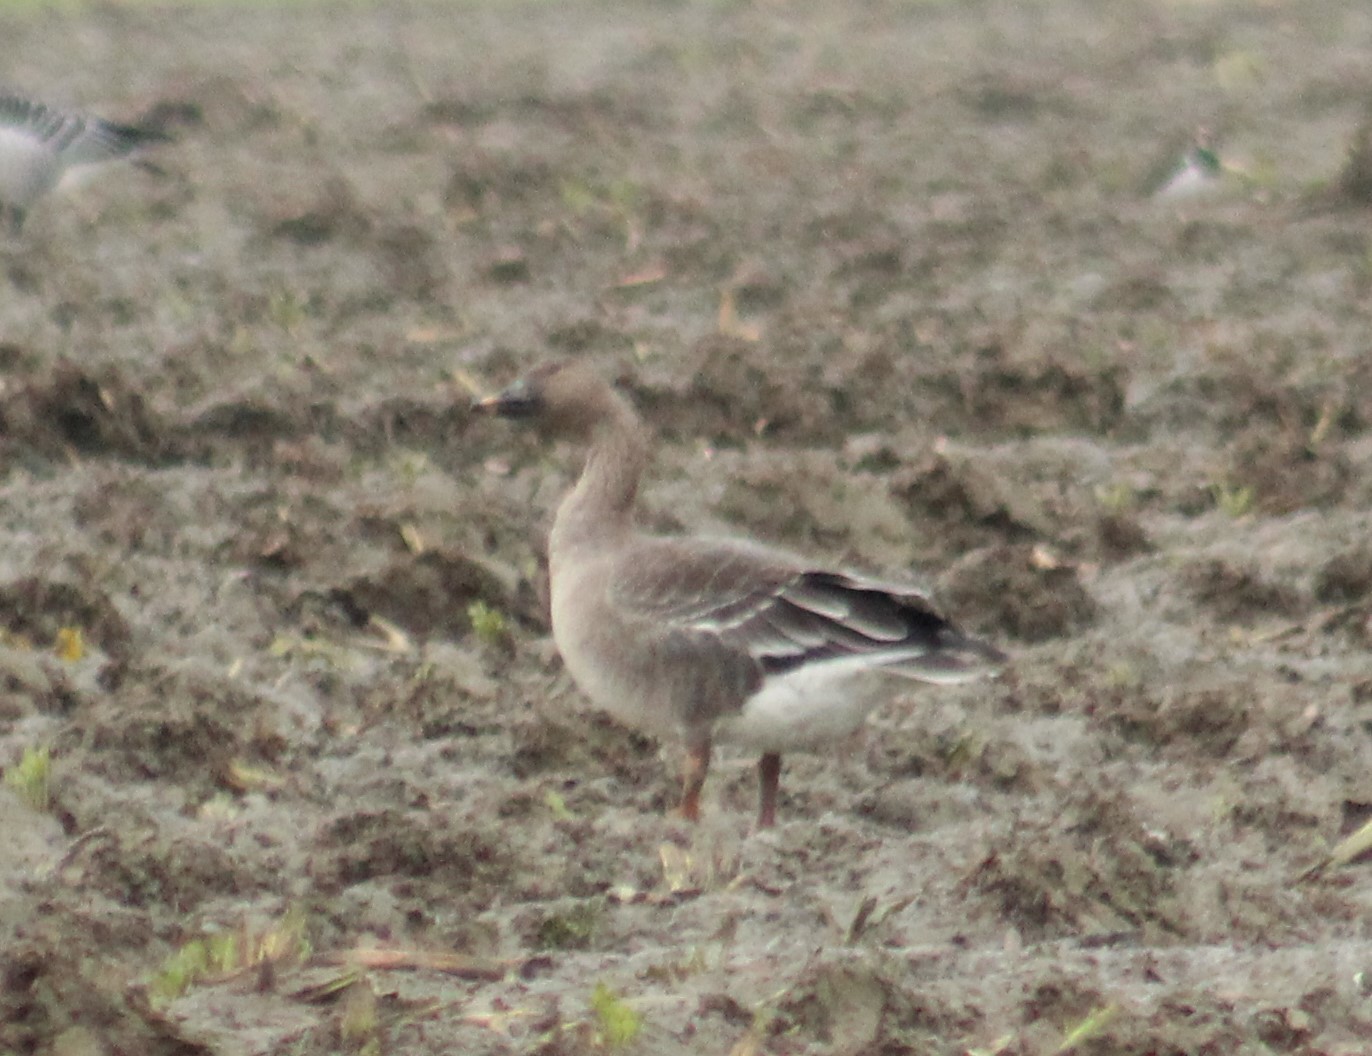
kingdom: Animalia
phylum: Chordata
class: Aves
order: Anseriformes
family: Anatidae
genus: Anser
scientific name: Anser serrirostris
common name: Tundra bean goose
